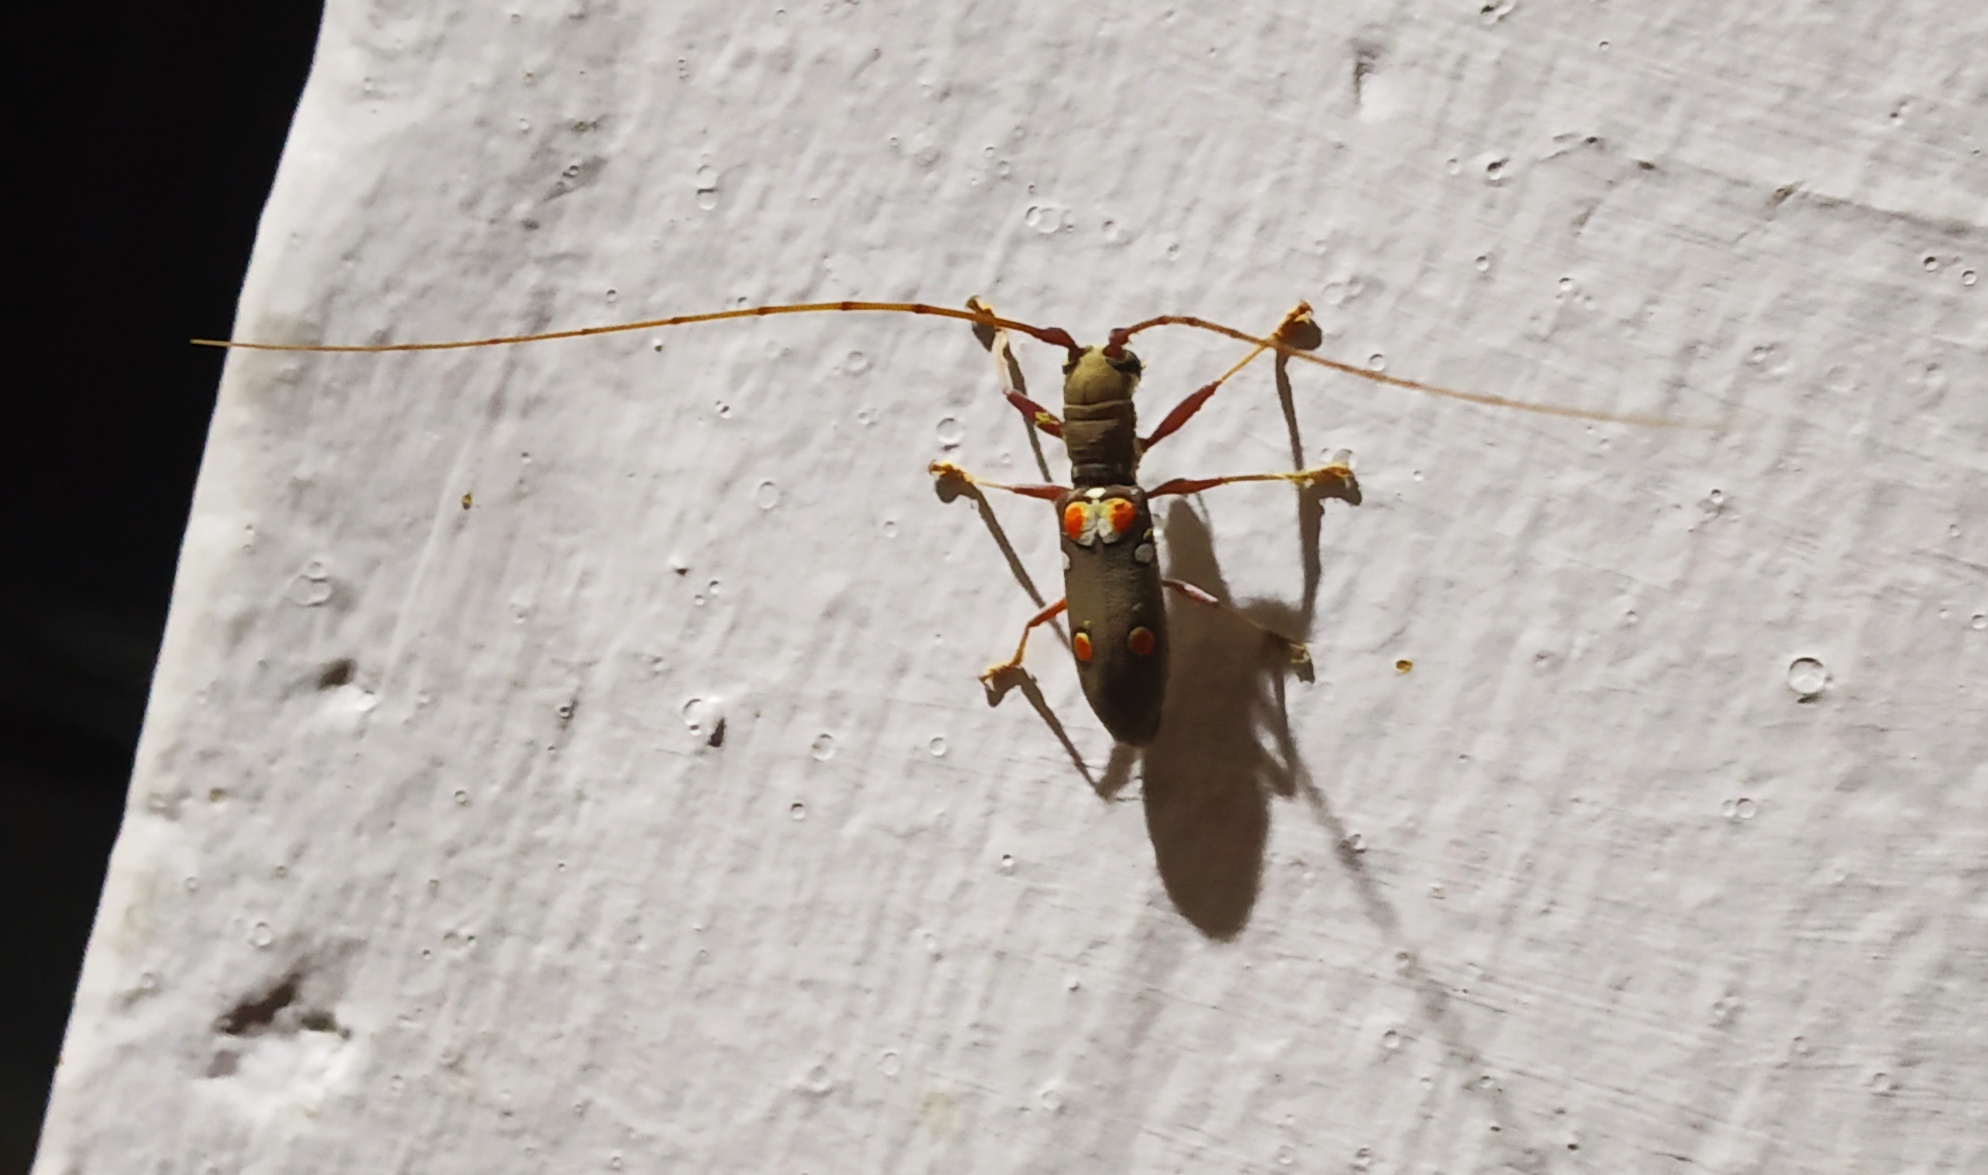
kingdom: Animalia
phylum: Arthropoda
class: Insecta
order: Coleoptera
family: Cerambycidae
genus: Olenecamptus
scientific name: Olenecamptus bilobus
